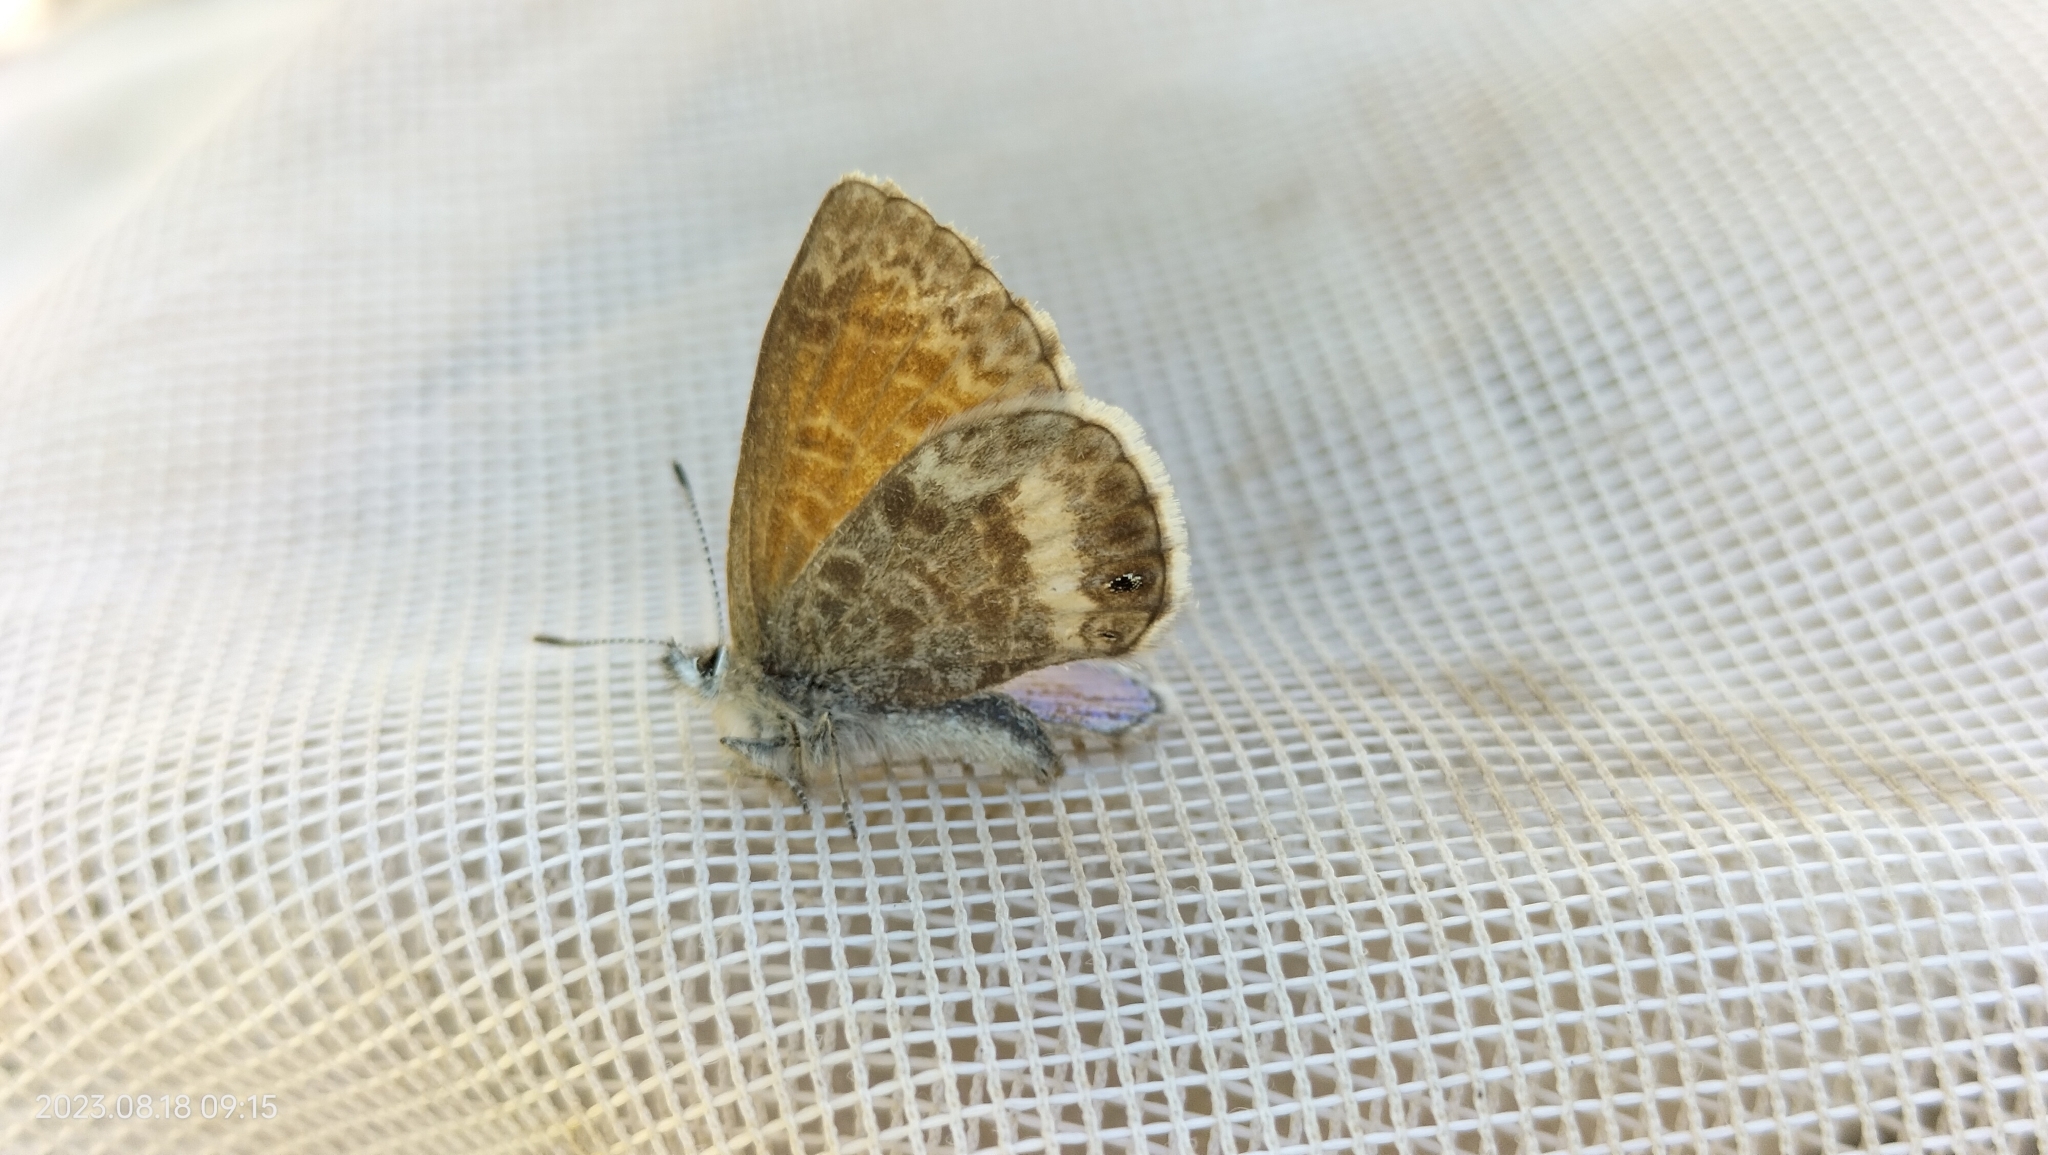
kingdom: Animalia
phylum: Arthropoda
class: Insecta
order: Lepidoptera
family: Lycaenidae
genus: Leptotes
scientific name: Leptotes callanga
